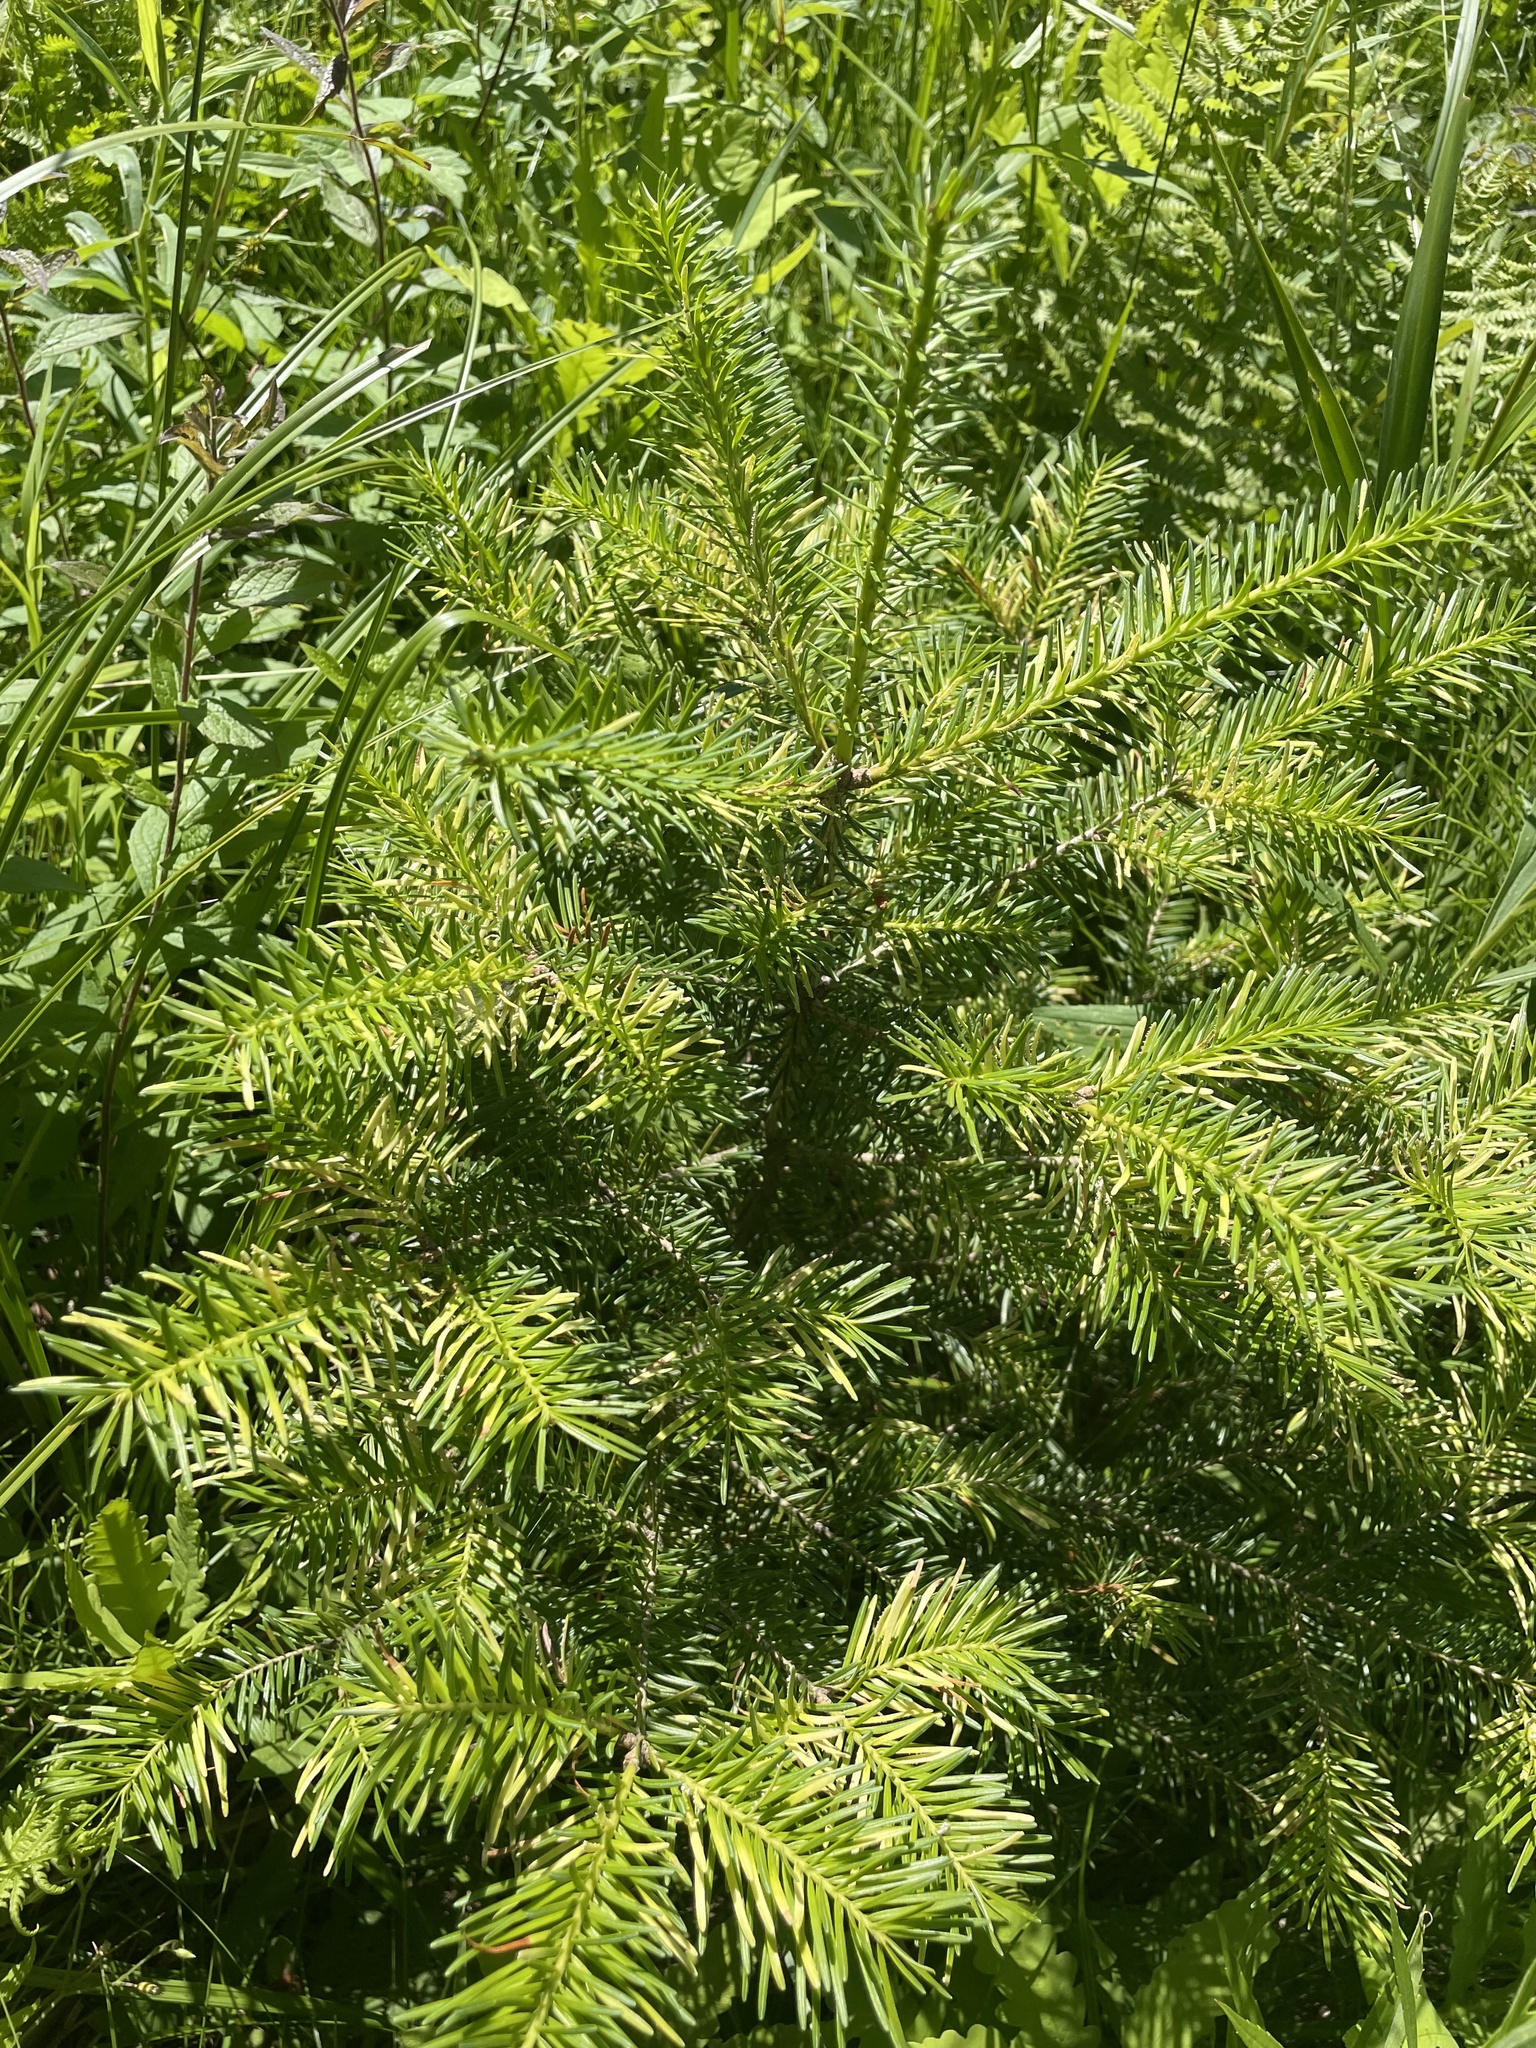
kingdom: Plantae
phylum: Tracheophyta
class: Pinopsida
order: Pinales
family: Pinaceae
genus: Abies
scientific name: Abies balsamea
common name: Balsam fir
